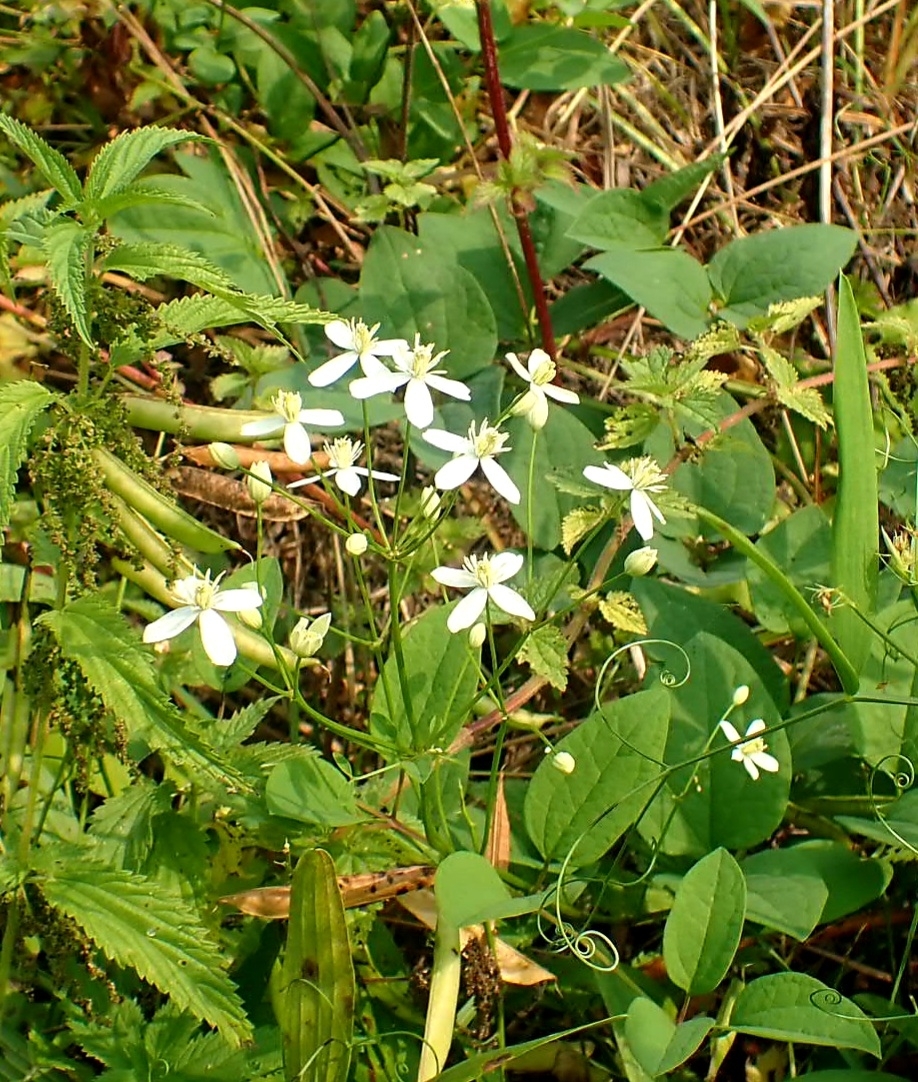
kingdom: Plantae
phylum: Tracheophyta
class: Magnoliopsida
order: Ranunculales
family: Ranunculaceae
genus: Clematis
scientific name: Clematis terniflora
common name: Sweet autumn clematis
